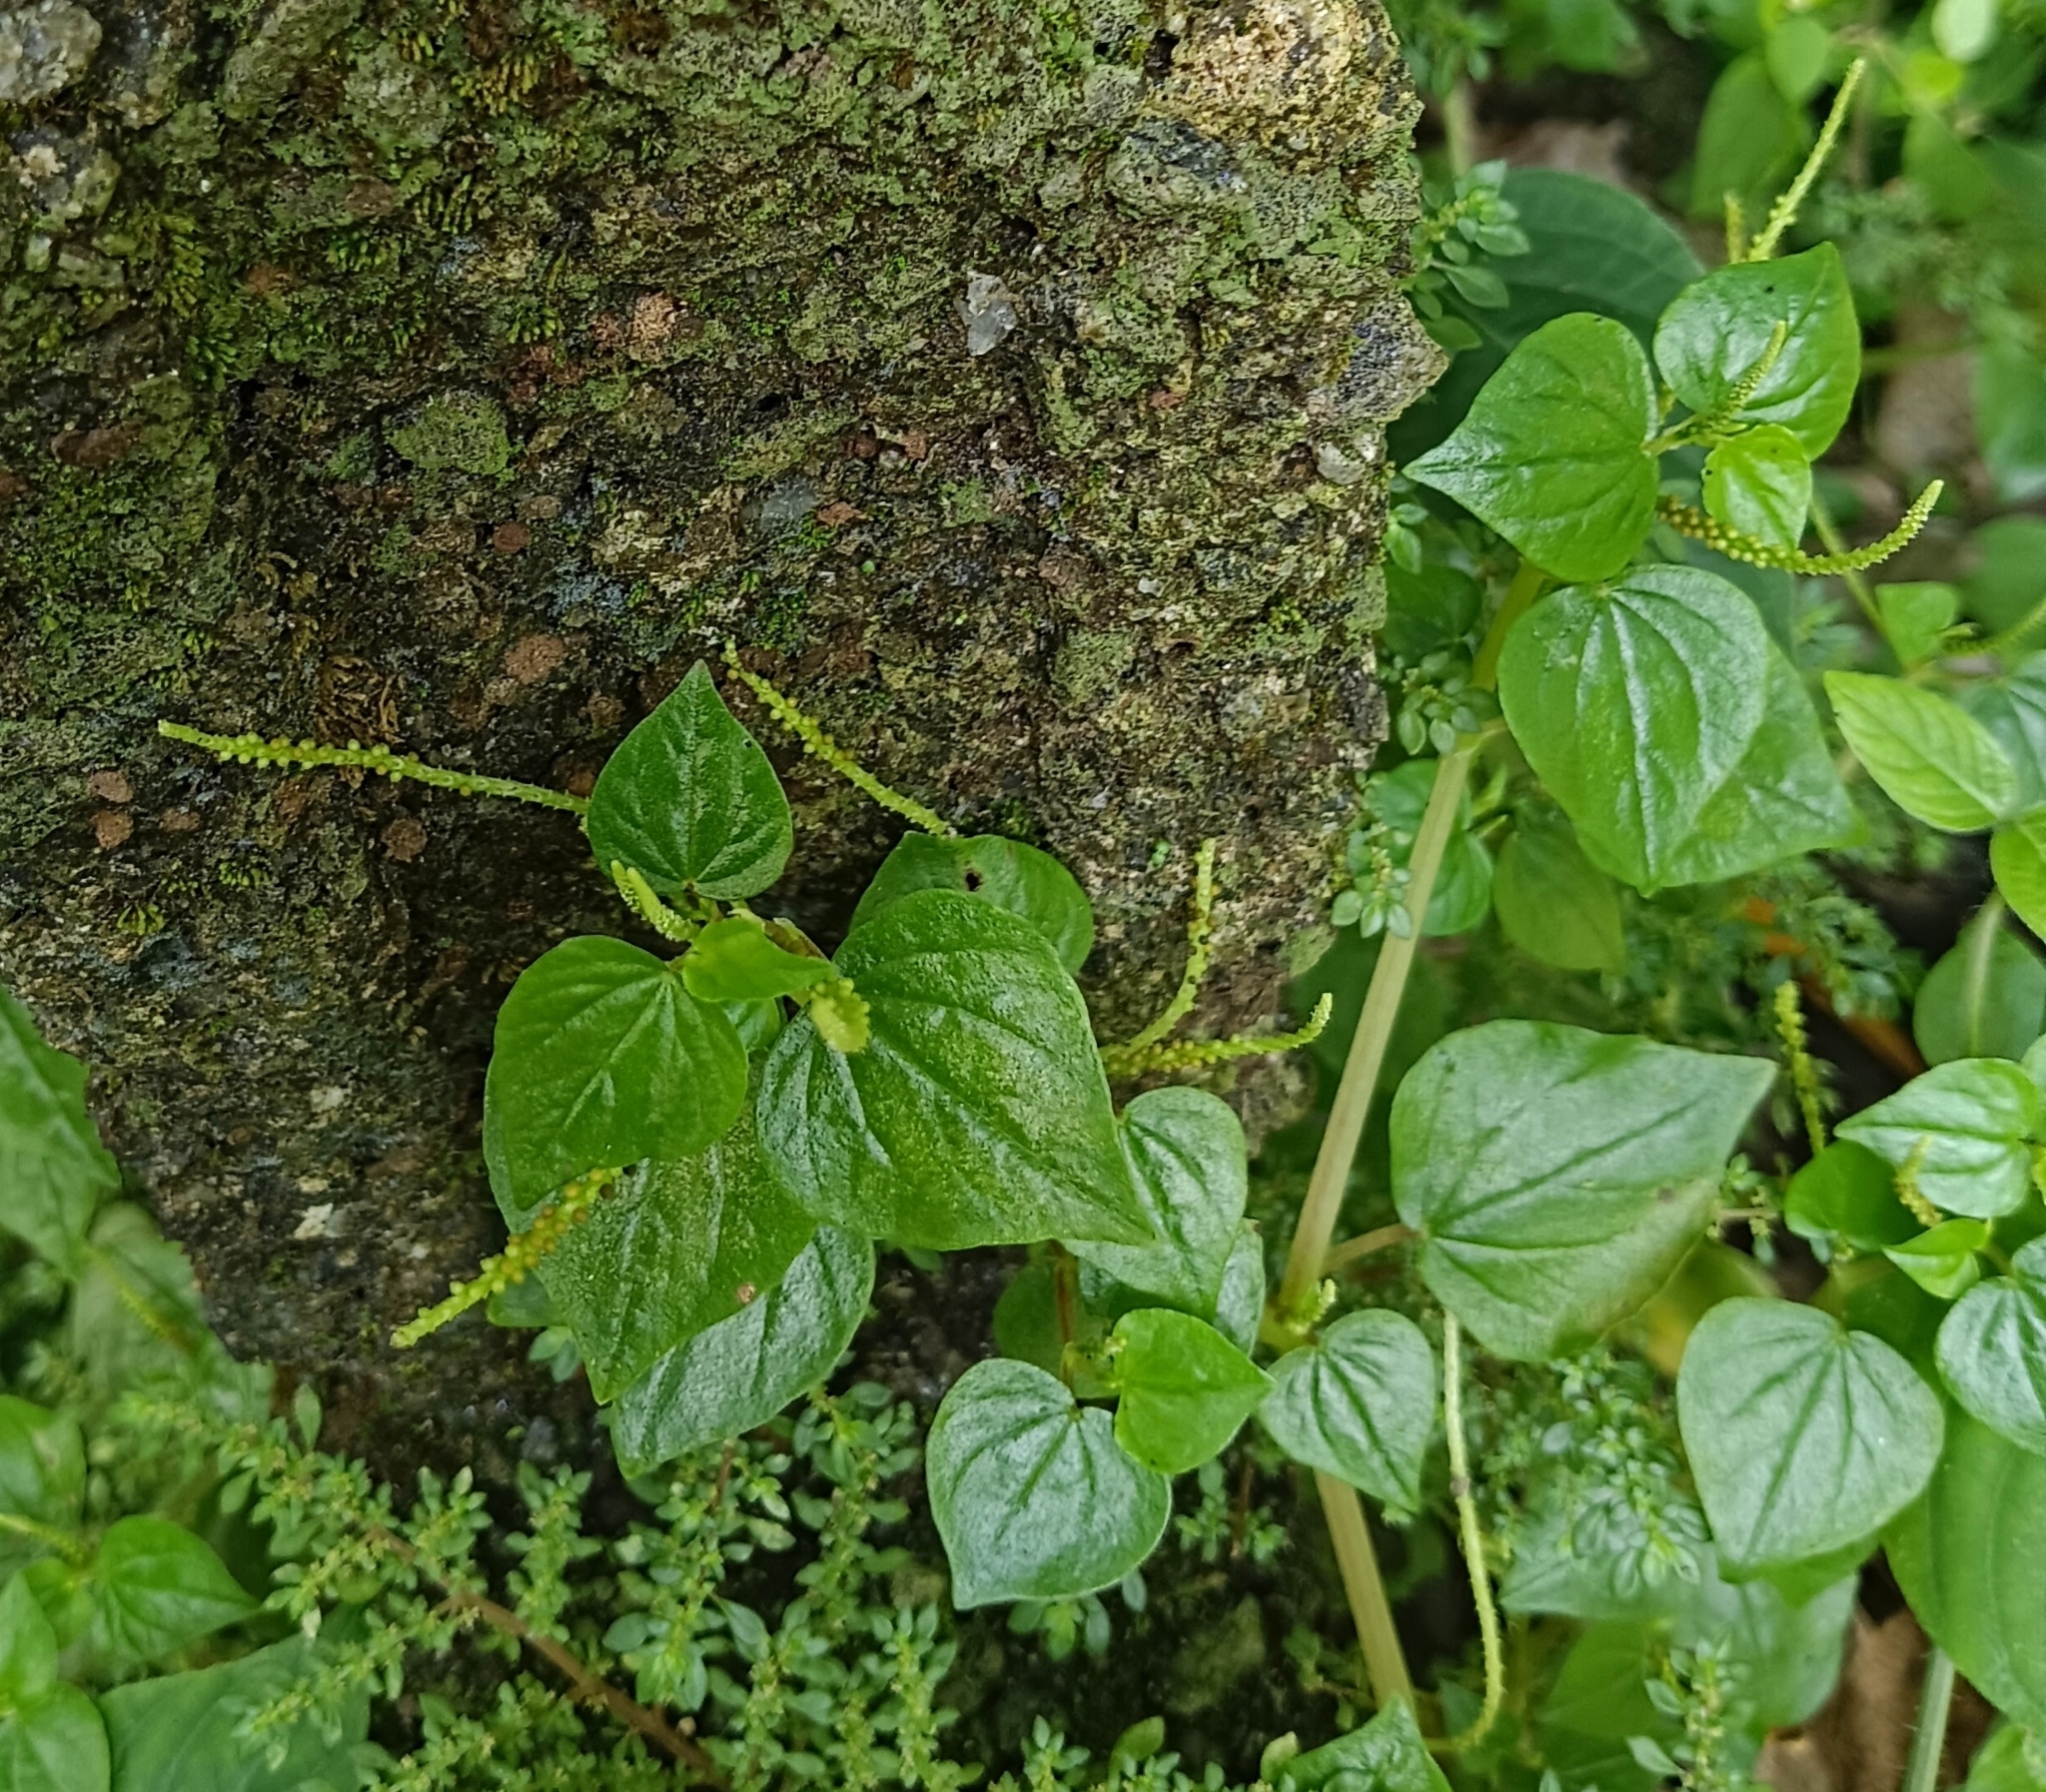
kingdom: Plantae
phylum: Tracheophyta
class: Magnoliopsida
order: Piperales
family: Piperaceae
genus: Peperomia
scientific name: Peperomia pellucida
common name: Man to man
